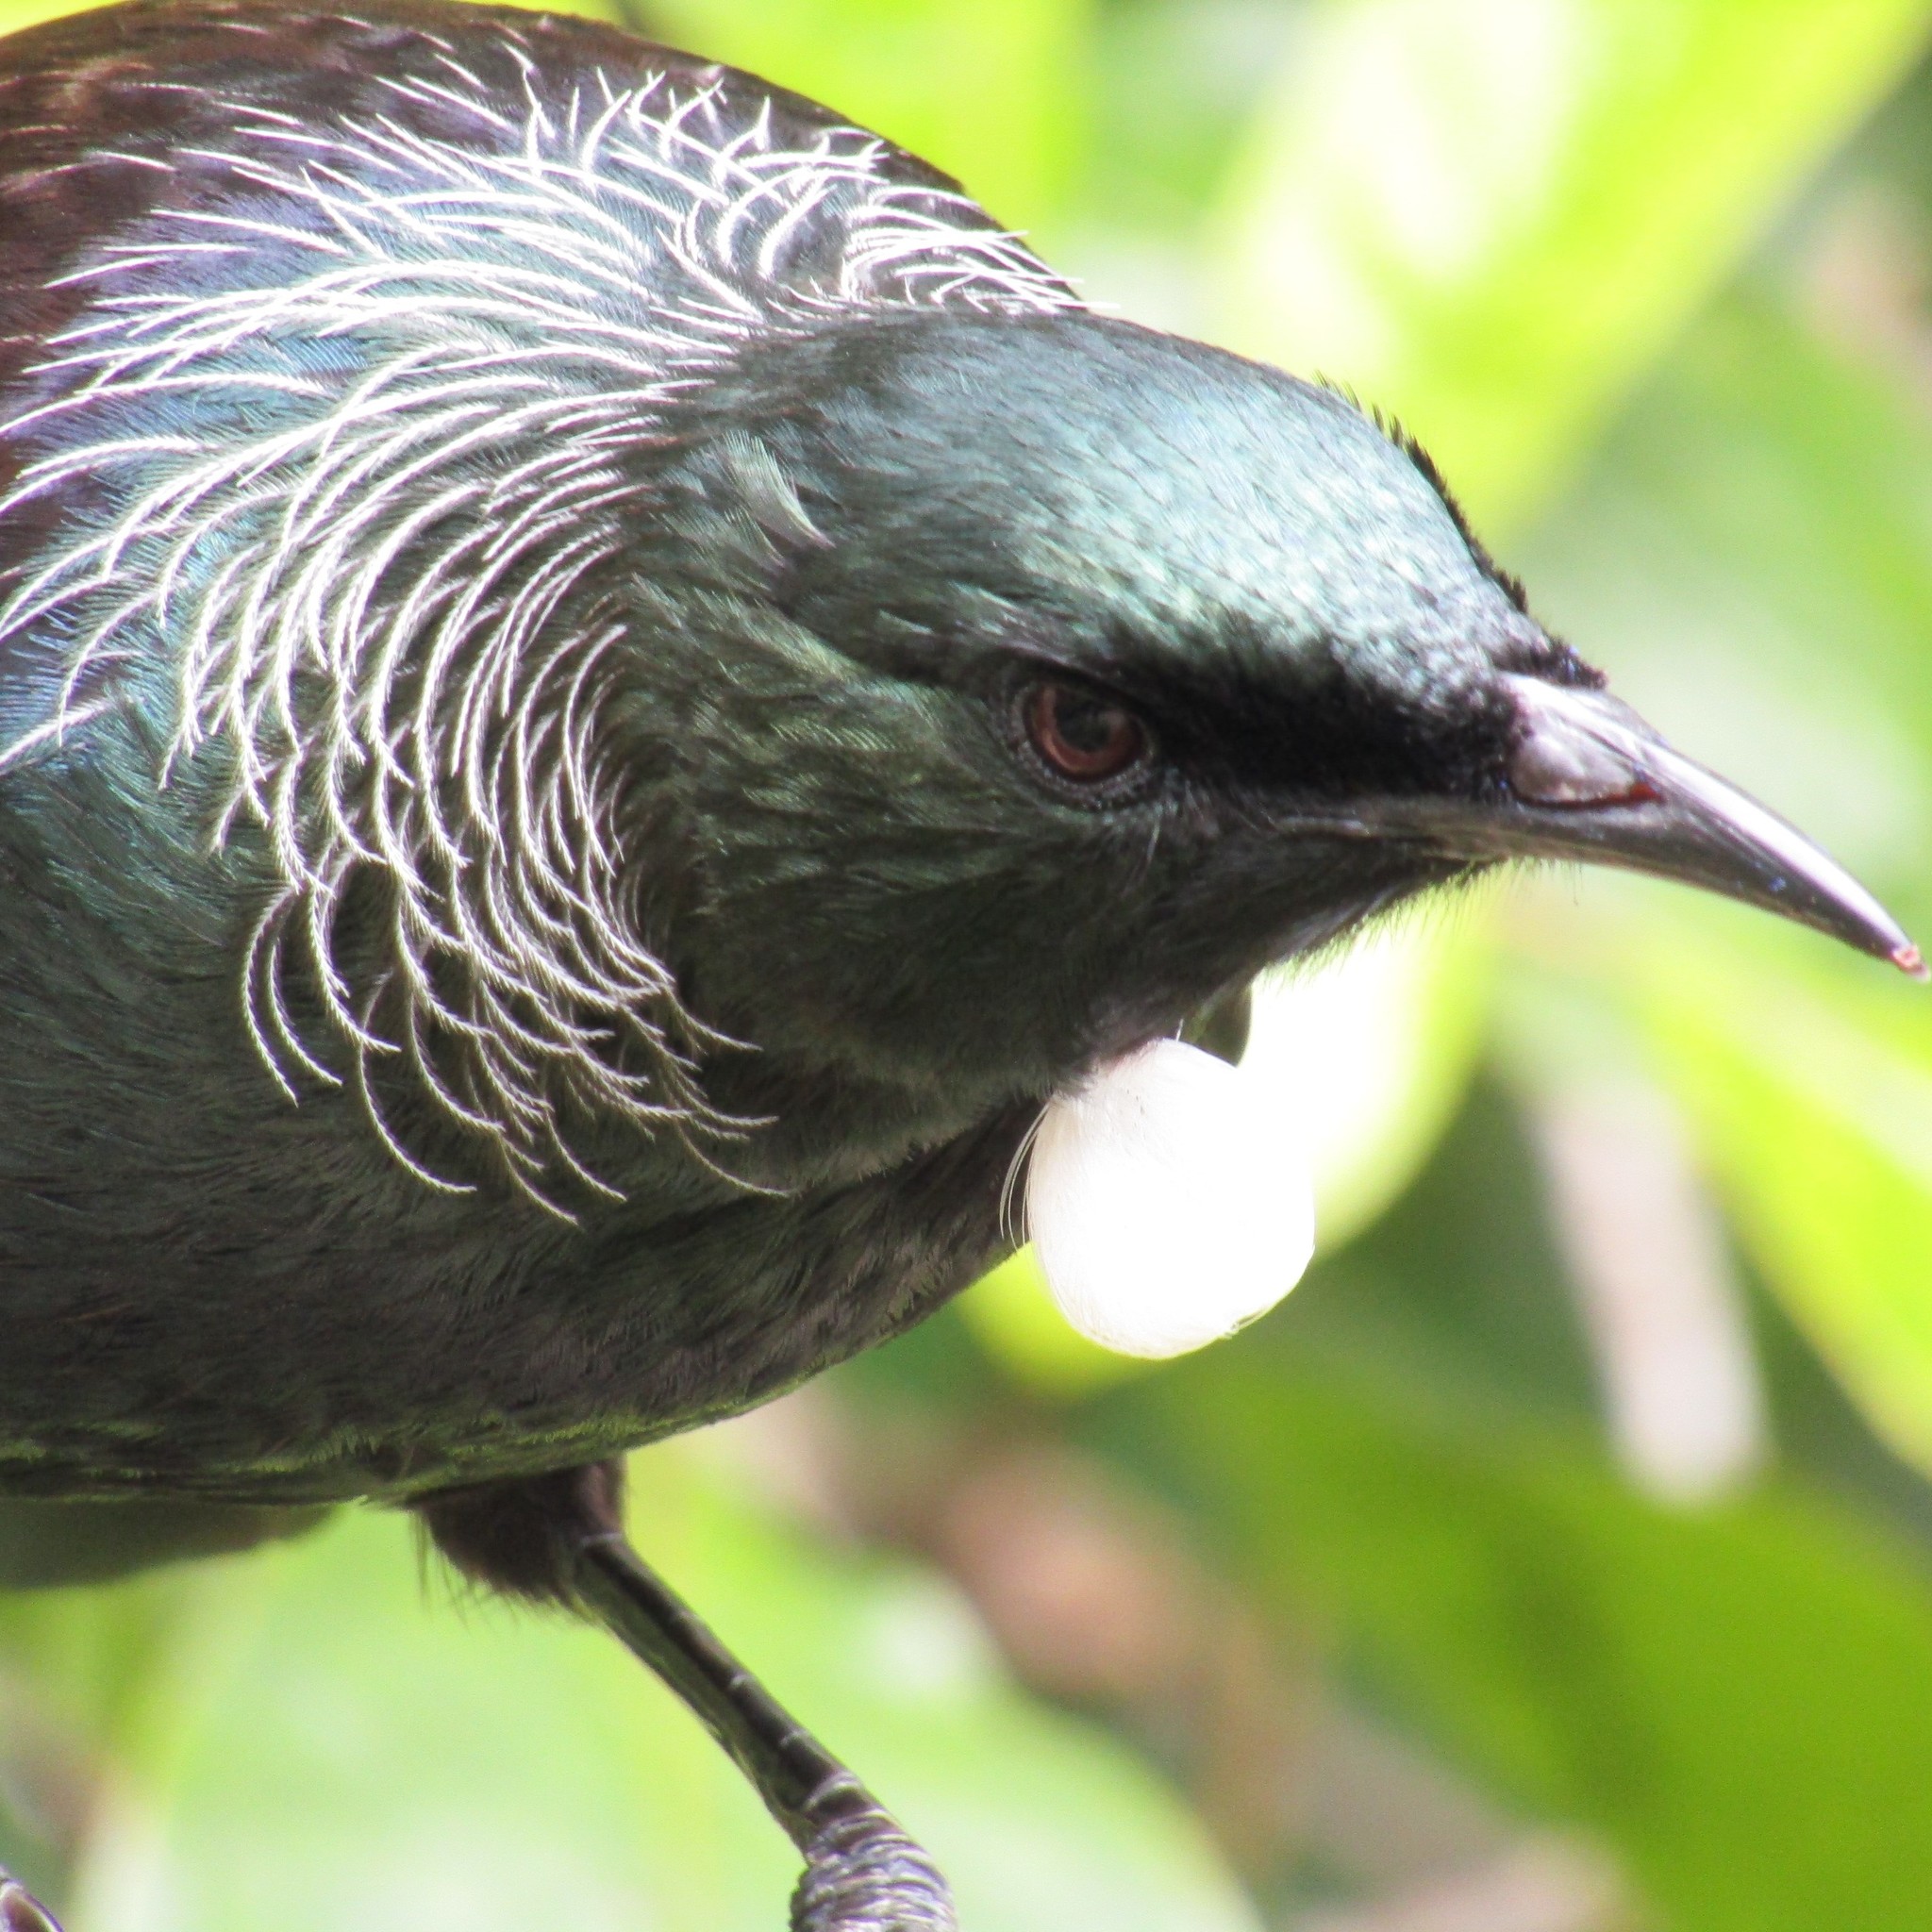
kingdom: Animalia
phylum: Chordata
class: Aves
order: Passeriformes
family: Meliphagidae
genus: Prosthemadera
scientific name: Prosthemadera novaeseelandiae
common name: Tui
